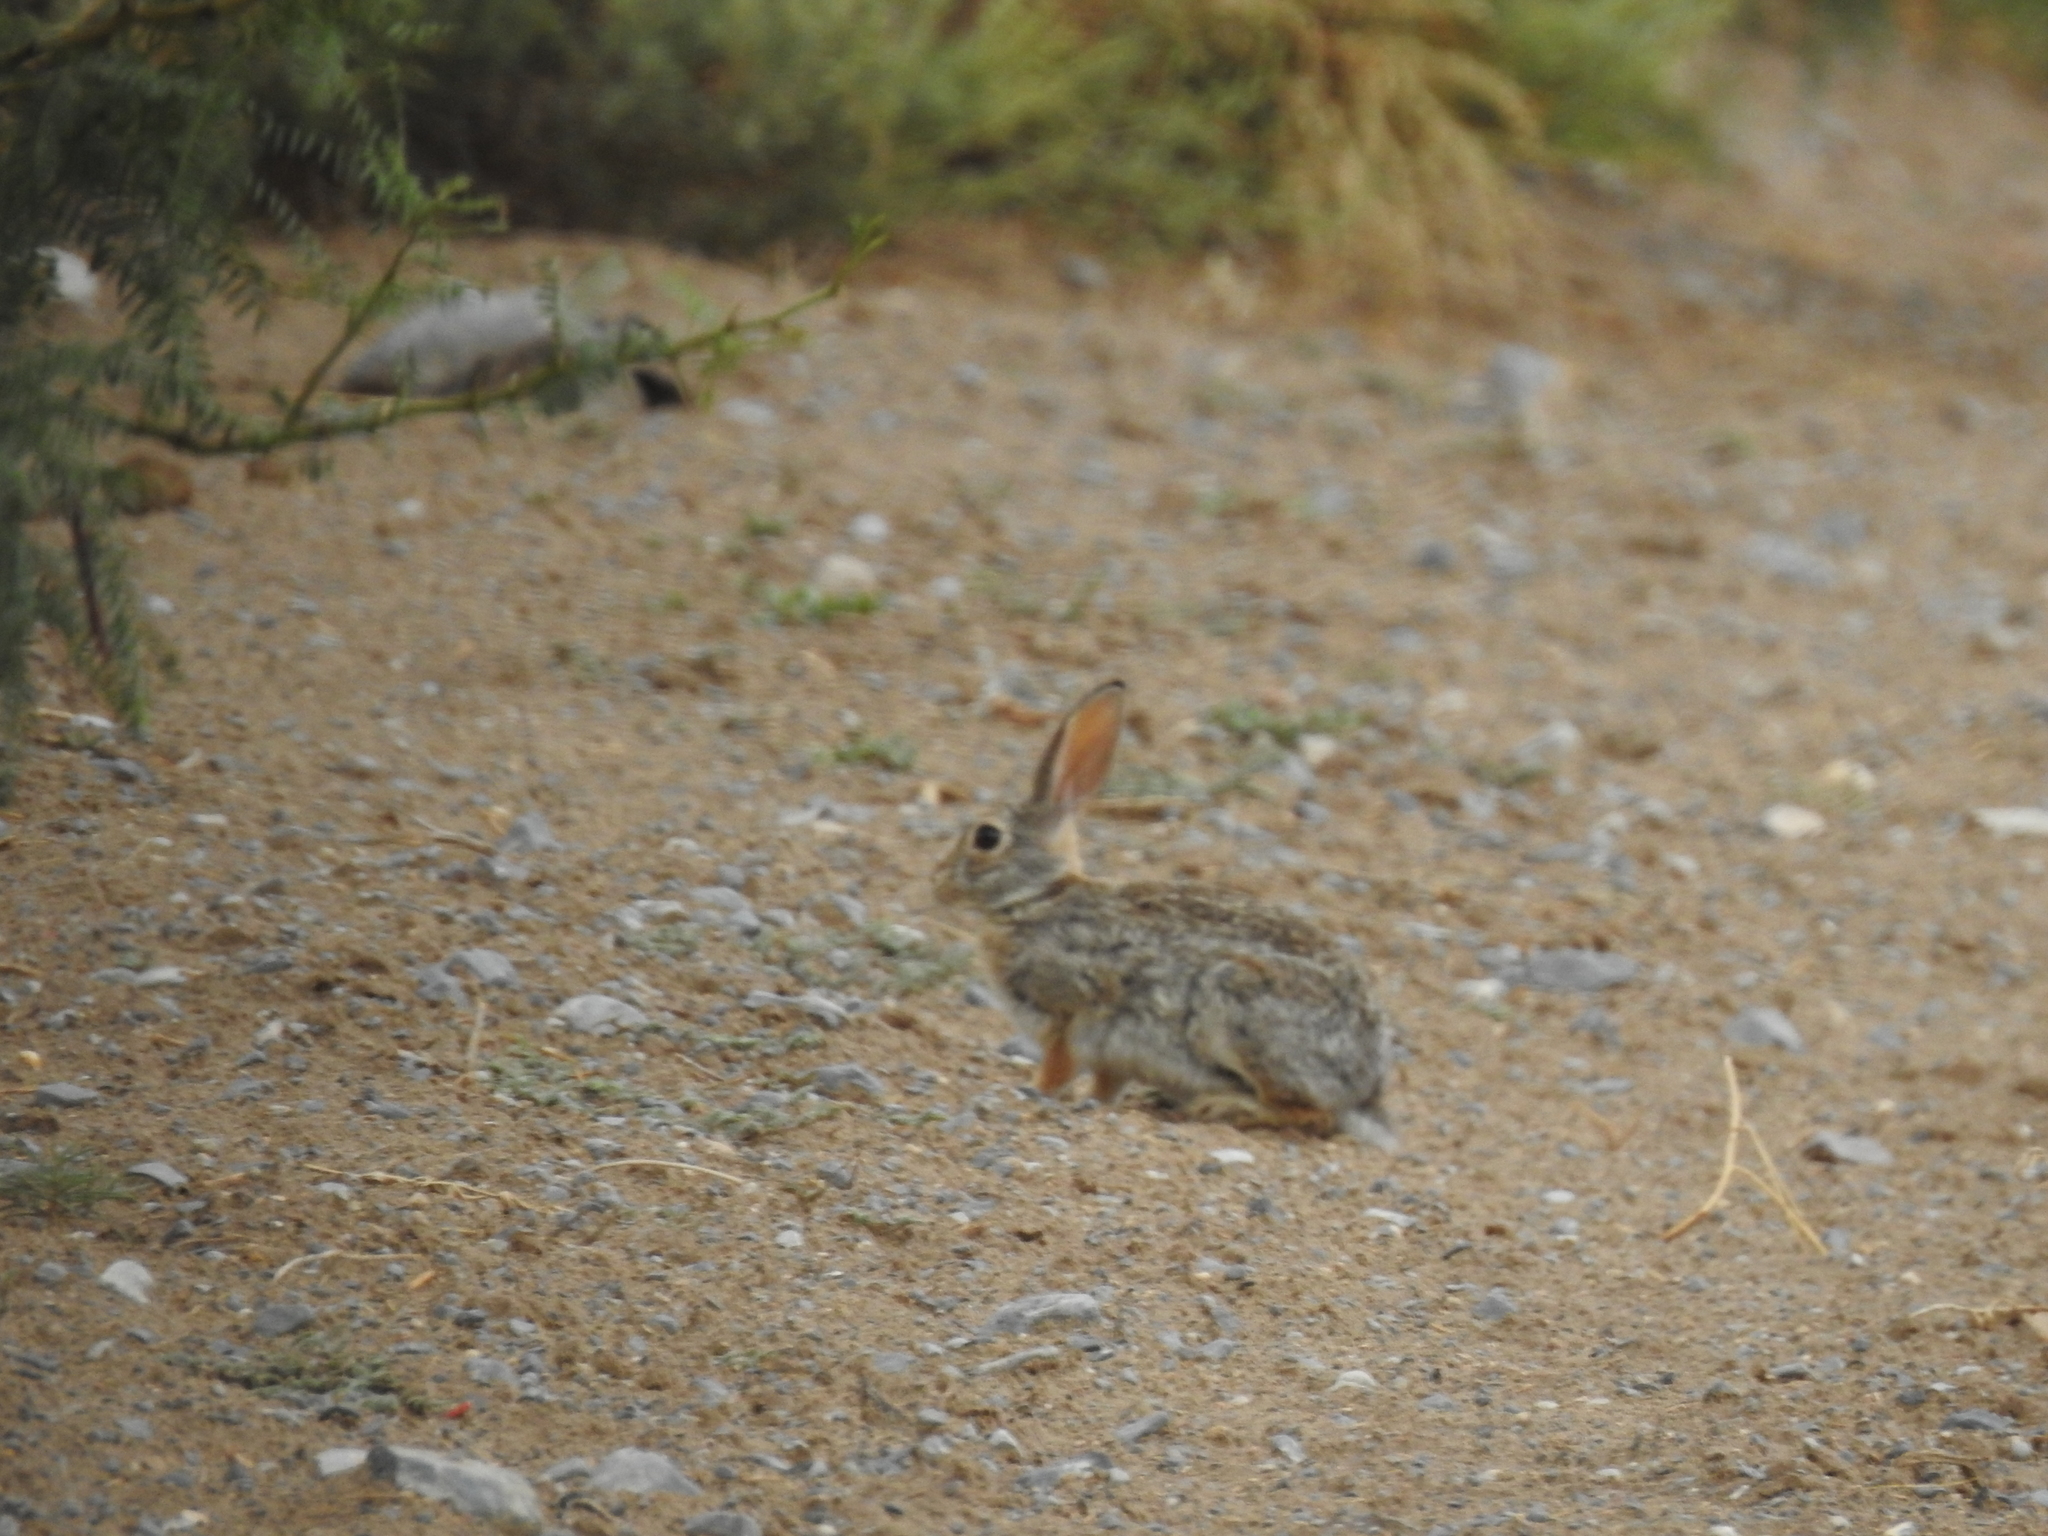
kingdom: Animalia
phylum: Chordata
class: Mammalia
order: Lagomorpha
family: Leporidae
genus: Sylvilagus
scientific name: Sylvilagus audubonii
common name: Desert cottontail
